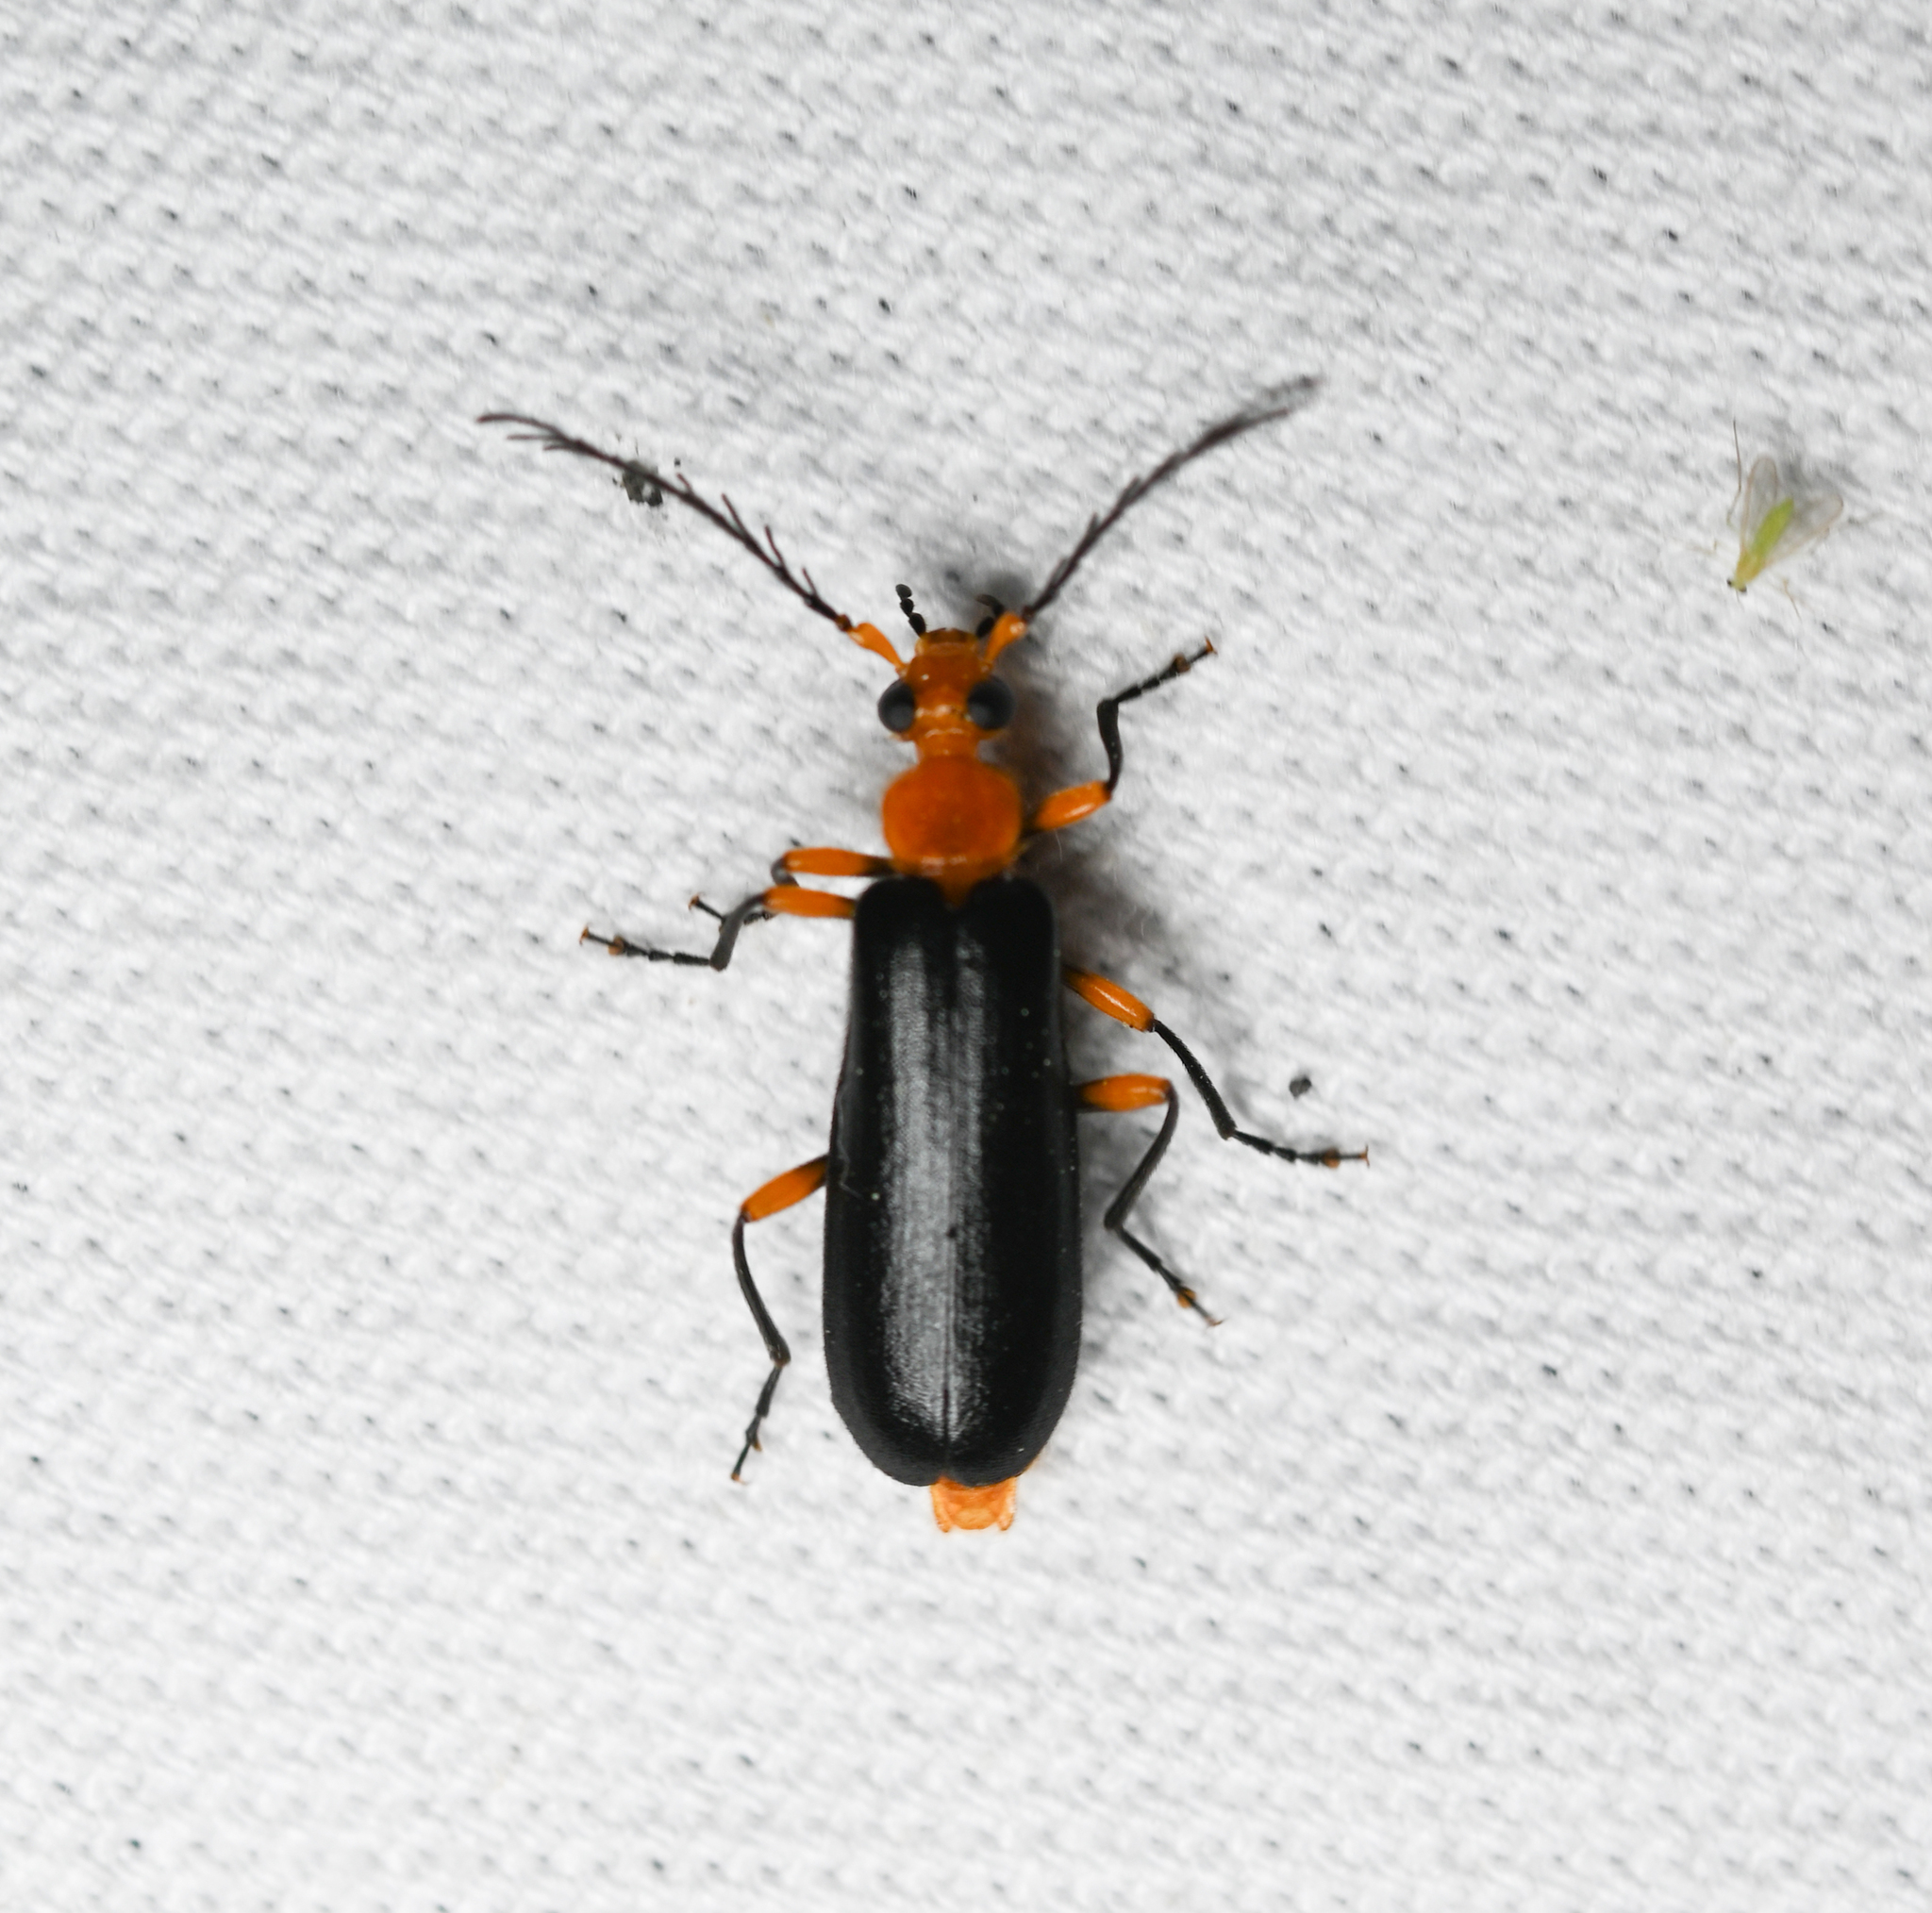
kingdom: Animalia
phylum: Arthropoda
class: Insecta
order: Coleoptera
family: Pyrochroidae
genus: Neopyrochroa
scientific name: Neopyrochroa femoralis
